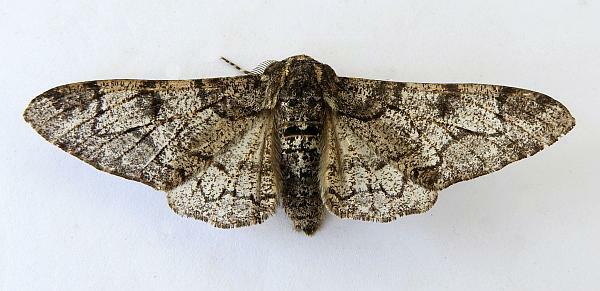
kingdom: Animalia
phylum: Arthropoda
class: Insecta
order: Lepidoptera
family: Geometridae
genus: Biston
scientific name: Biston betularia
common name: Peppered moth
